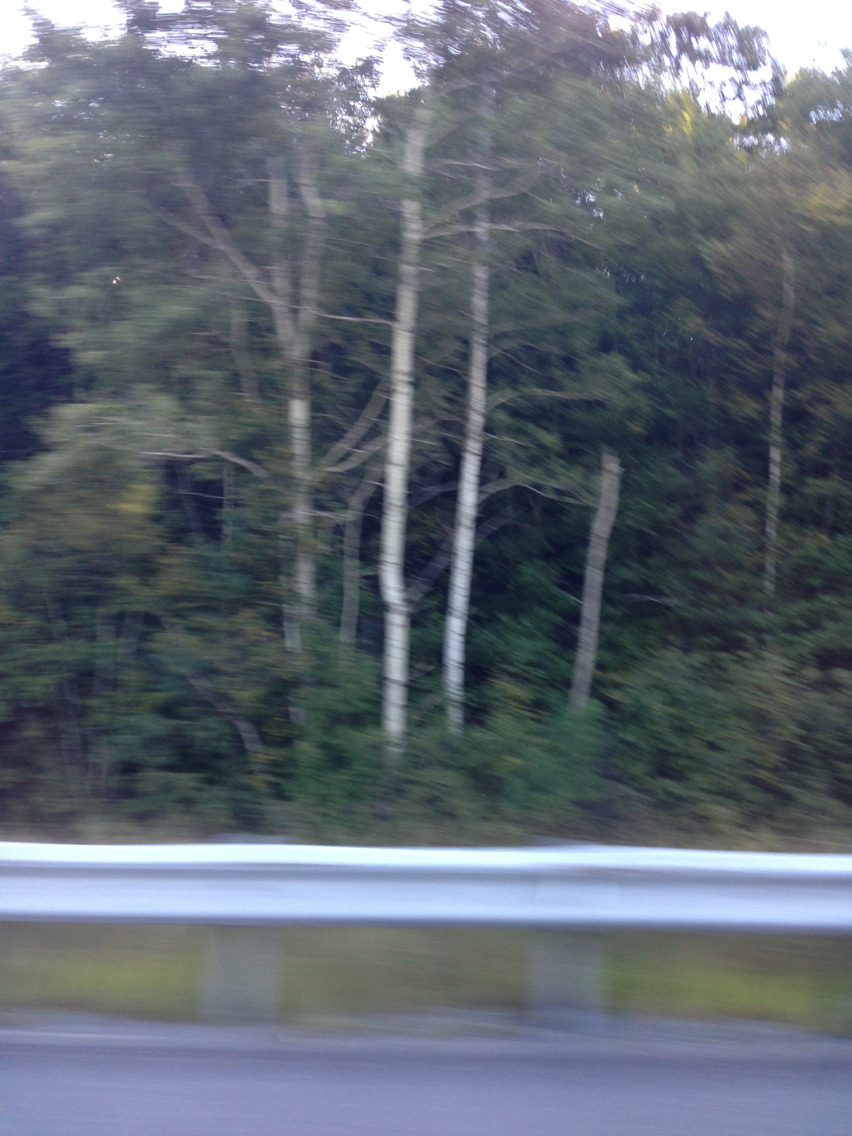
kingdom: Plantae
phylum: Tracheophyta
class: Magnoliopsida
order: Malpighiales
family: Salicaceae
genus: Populus
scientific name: Populus tremuloides
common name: Quaking aspen
